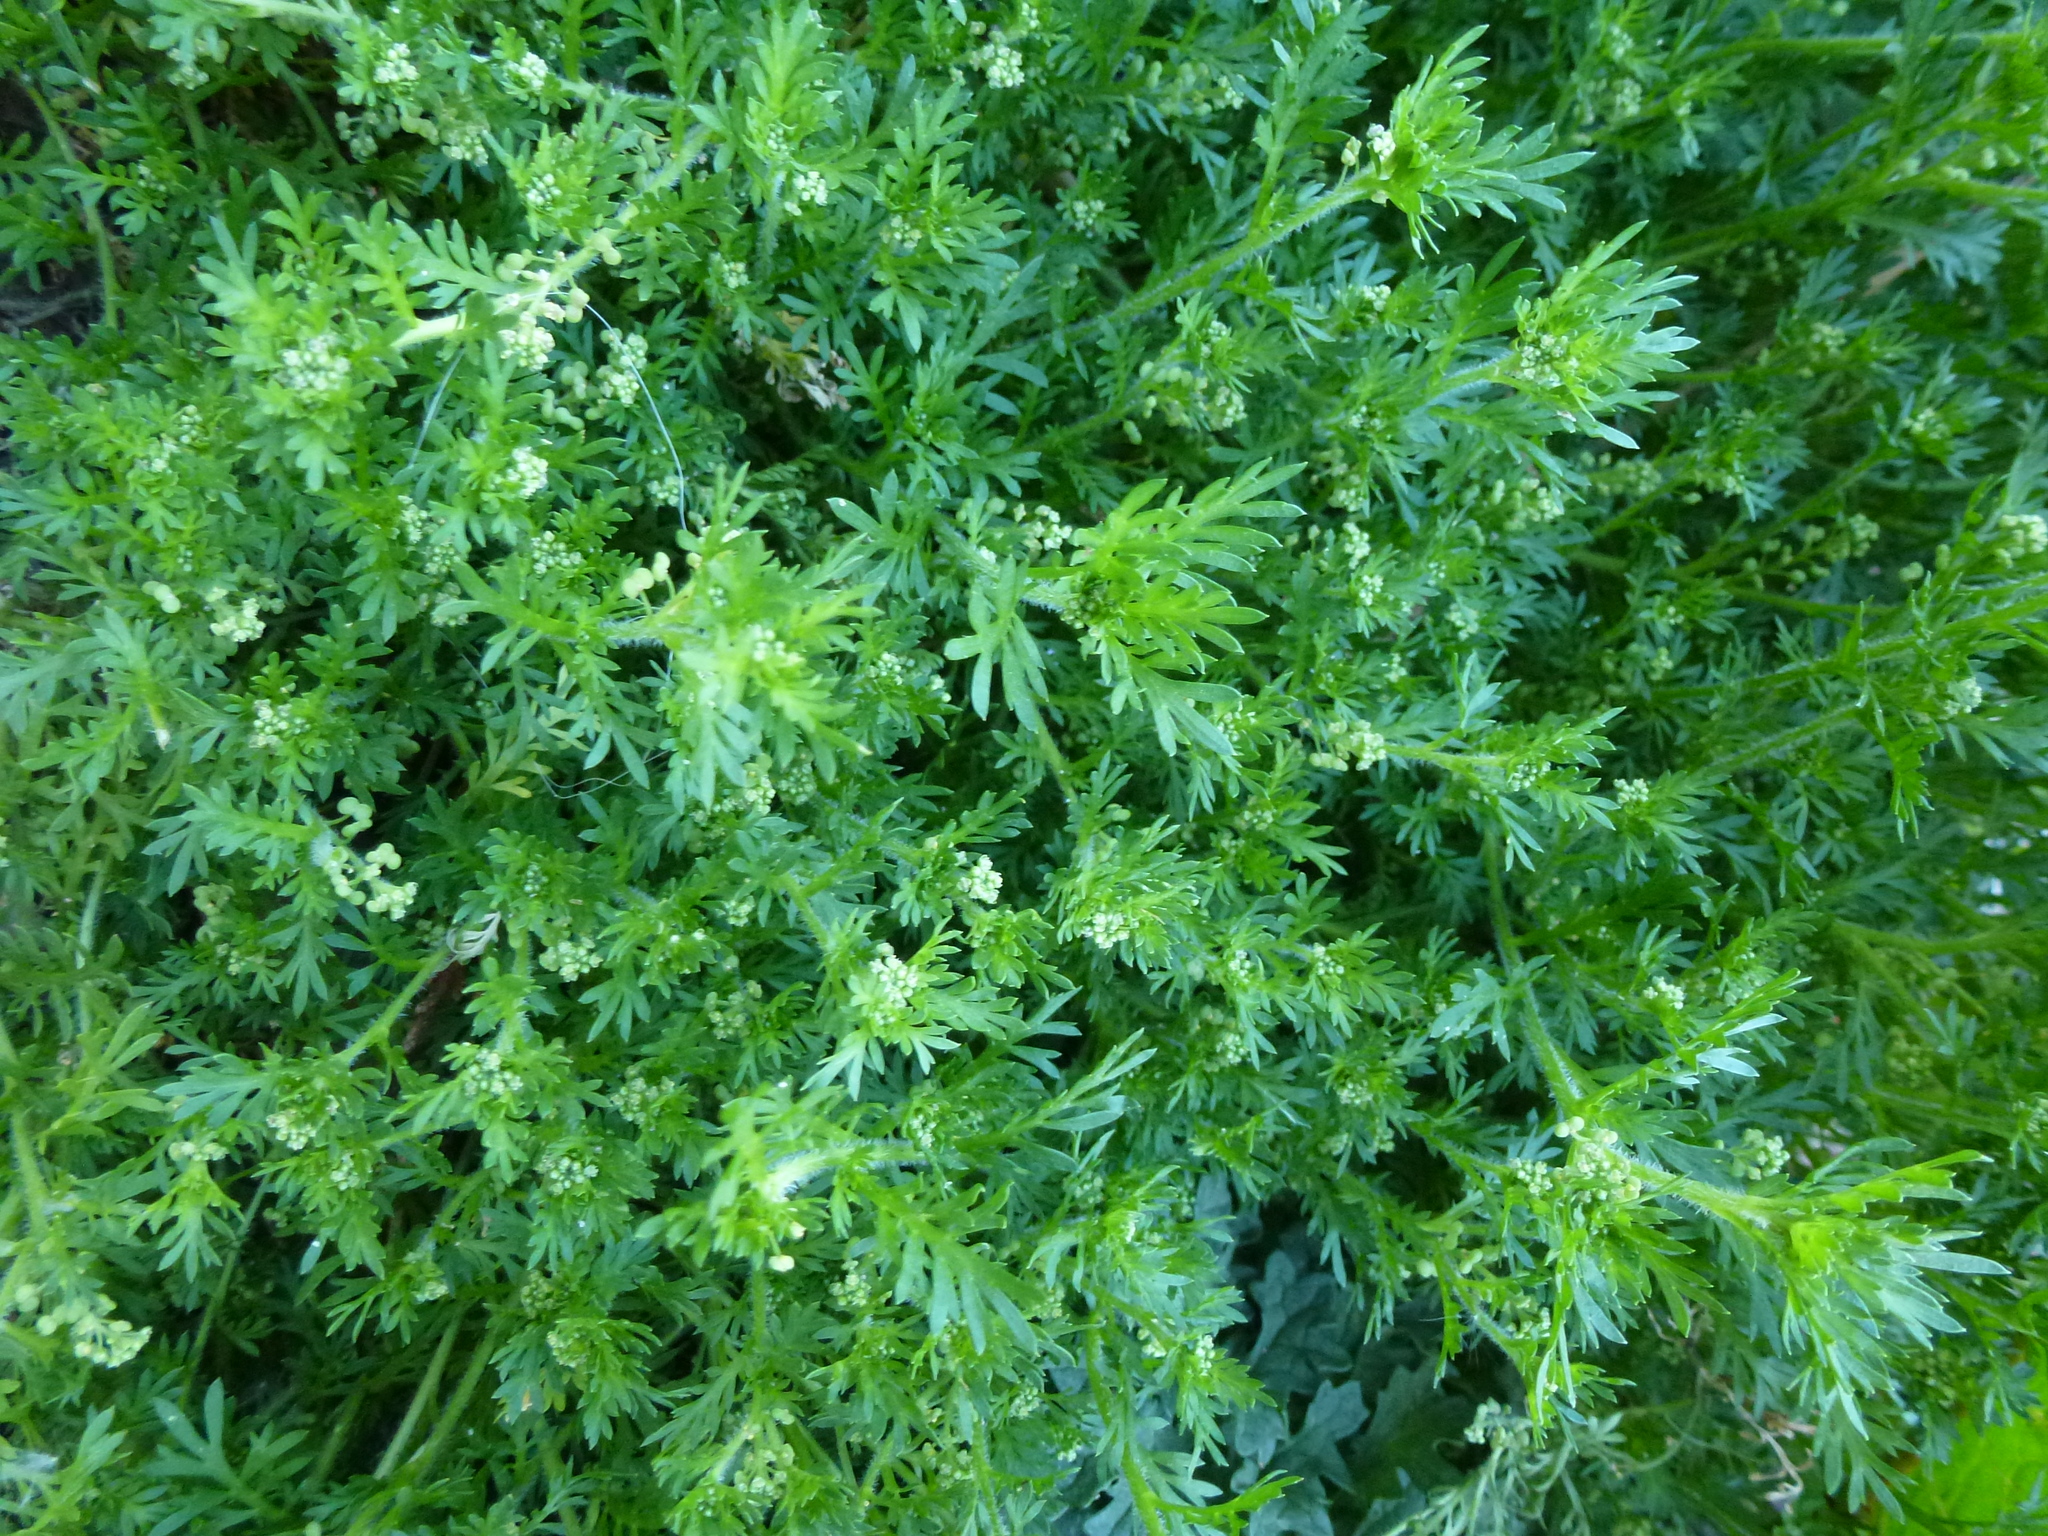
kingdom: Plantae
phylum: Tracheophyta
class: Magnoliopsida
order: Brassicales
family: Brassicaceae
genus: Lepidium
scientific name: Lepidium didymum
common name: Lesser swinecress
